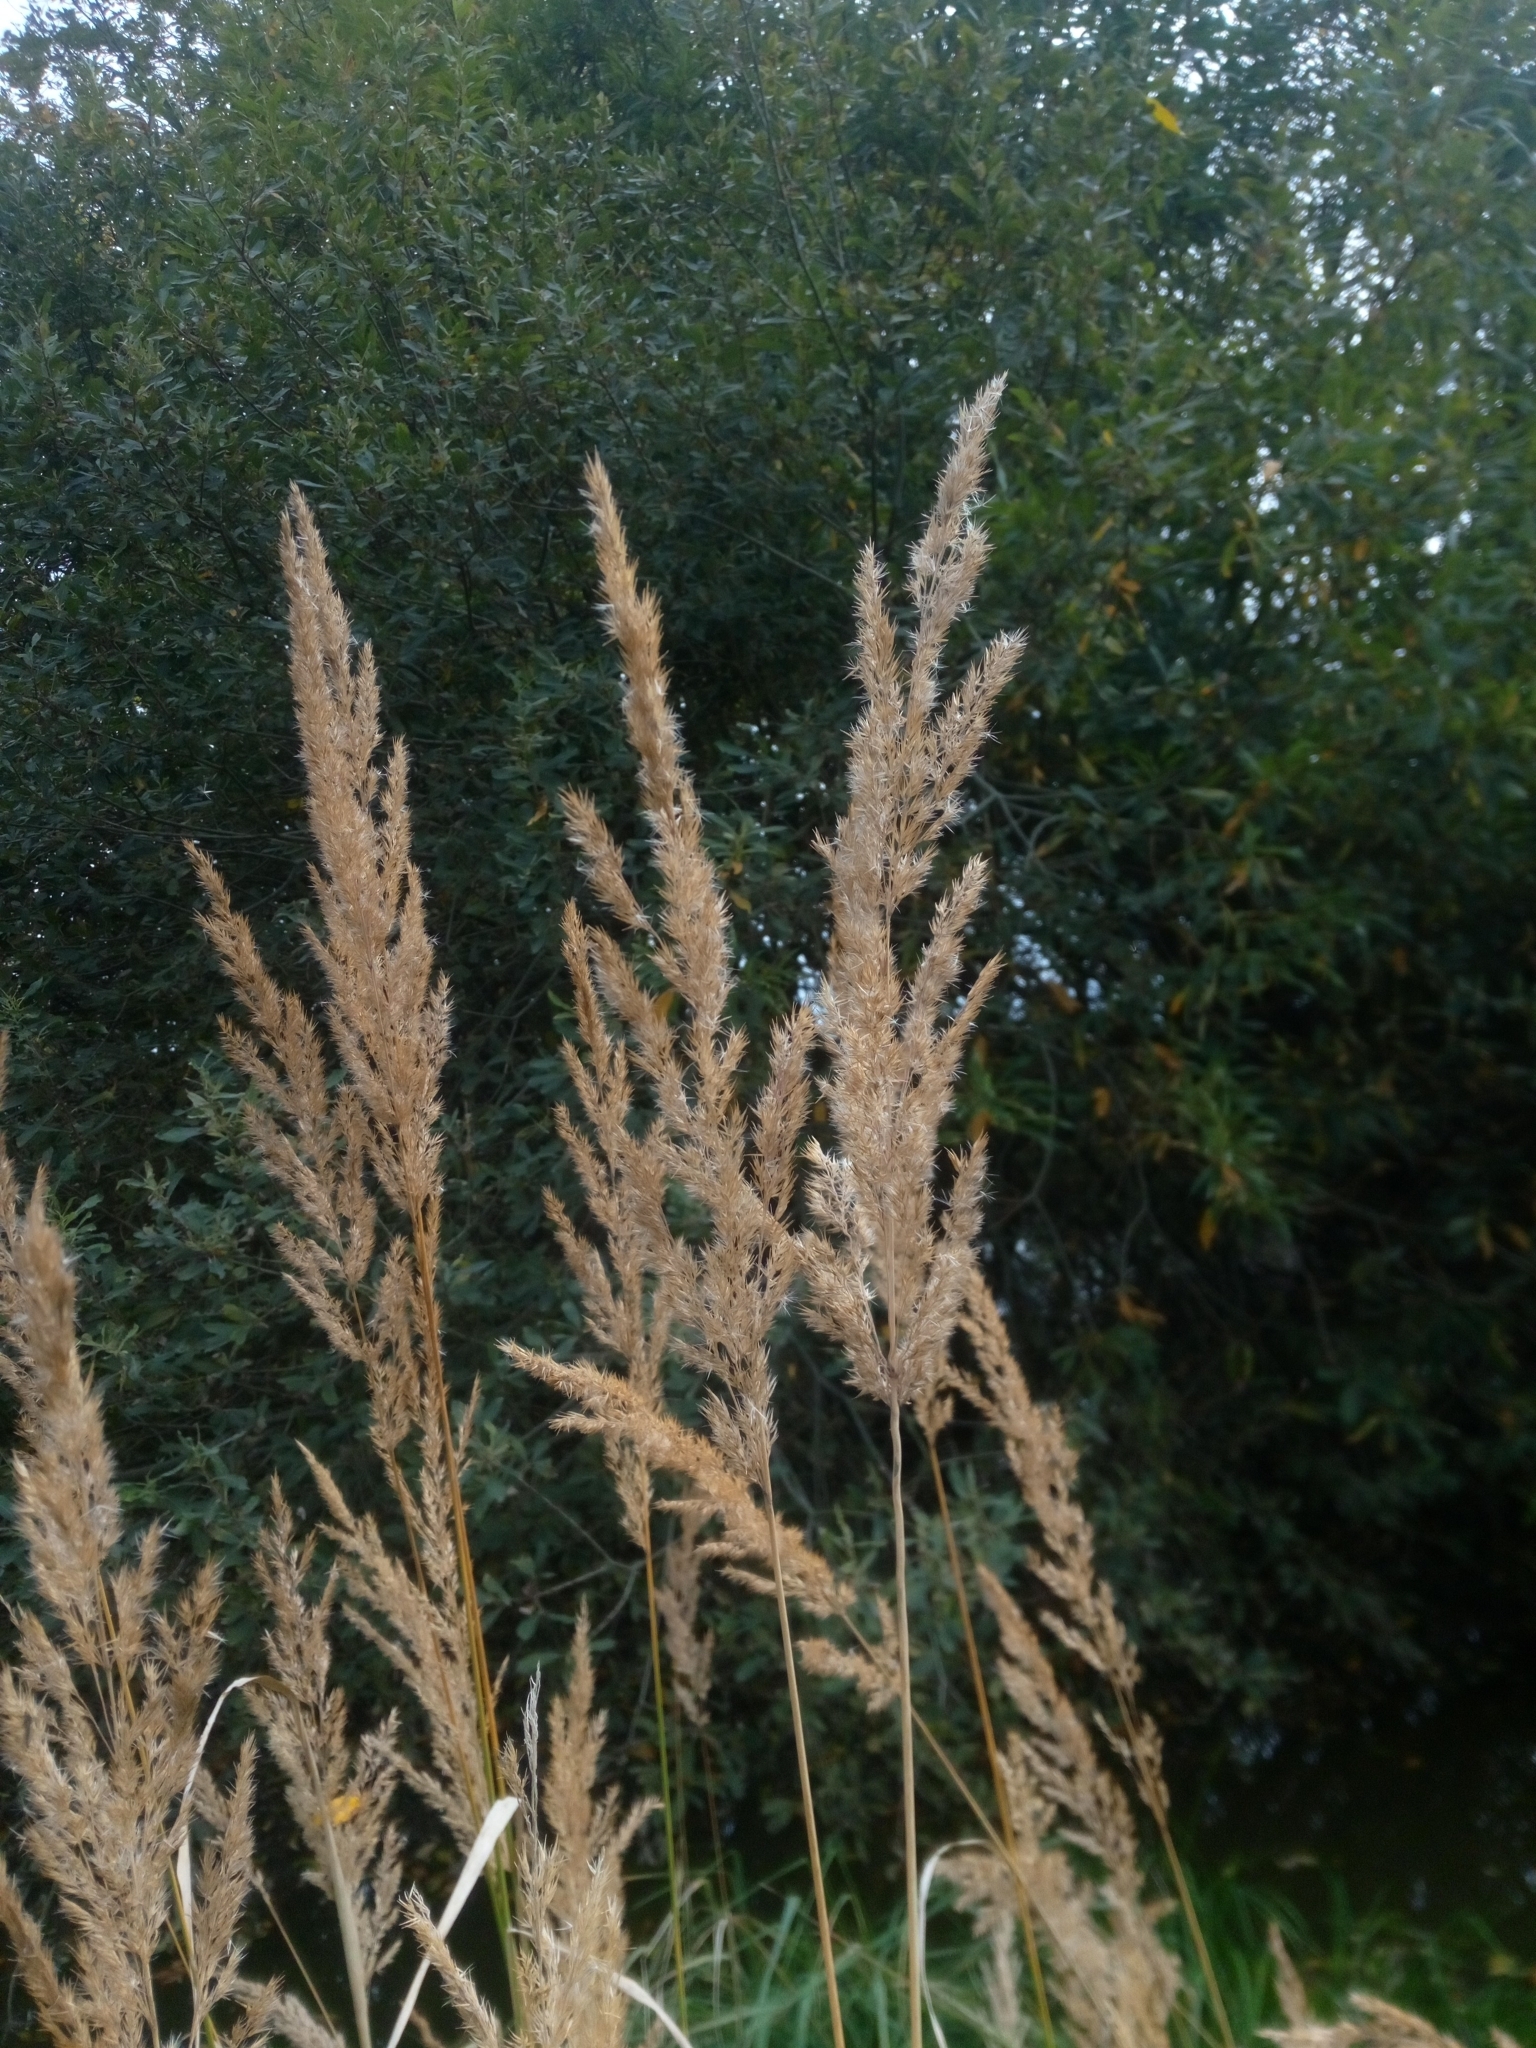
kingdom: Plantae
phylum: Tracheophyta
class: Liliopsida
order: Poales
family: Poaceae
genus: Calamagrostis
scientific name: Calamagrostis epigejos
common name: Wood small-reed
